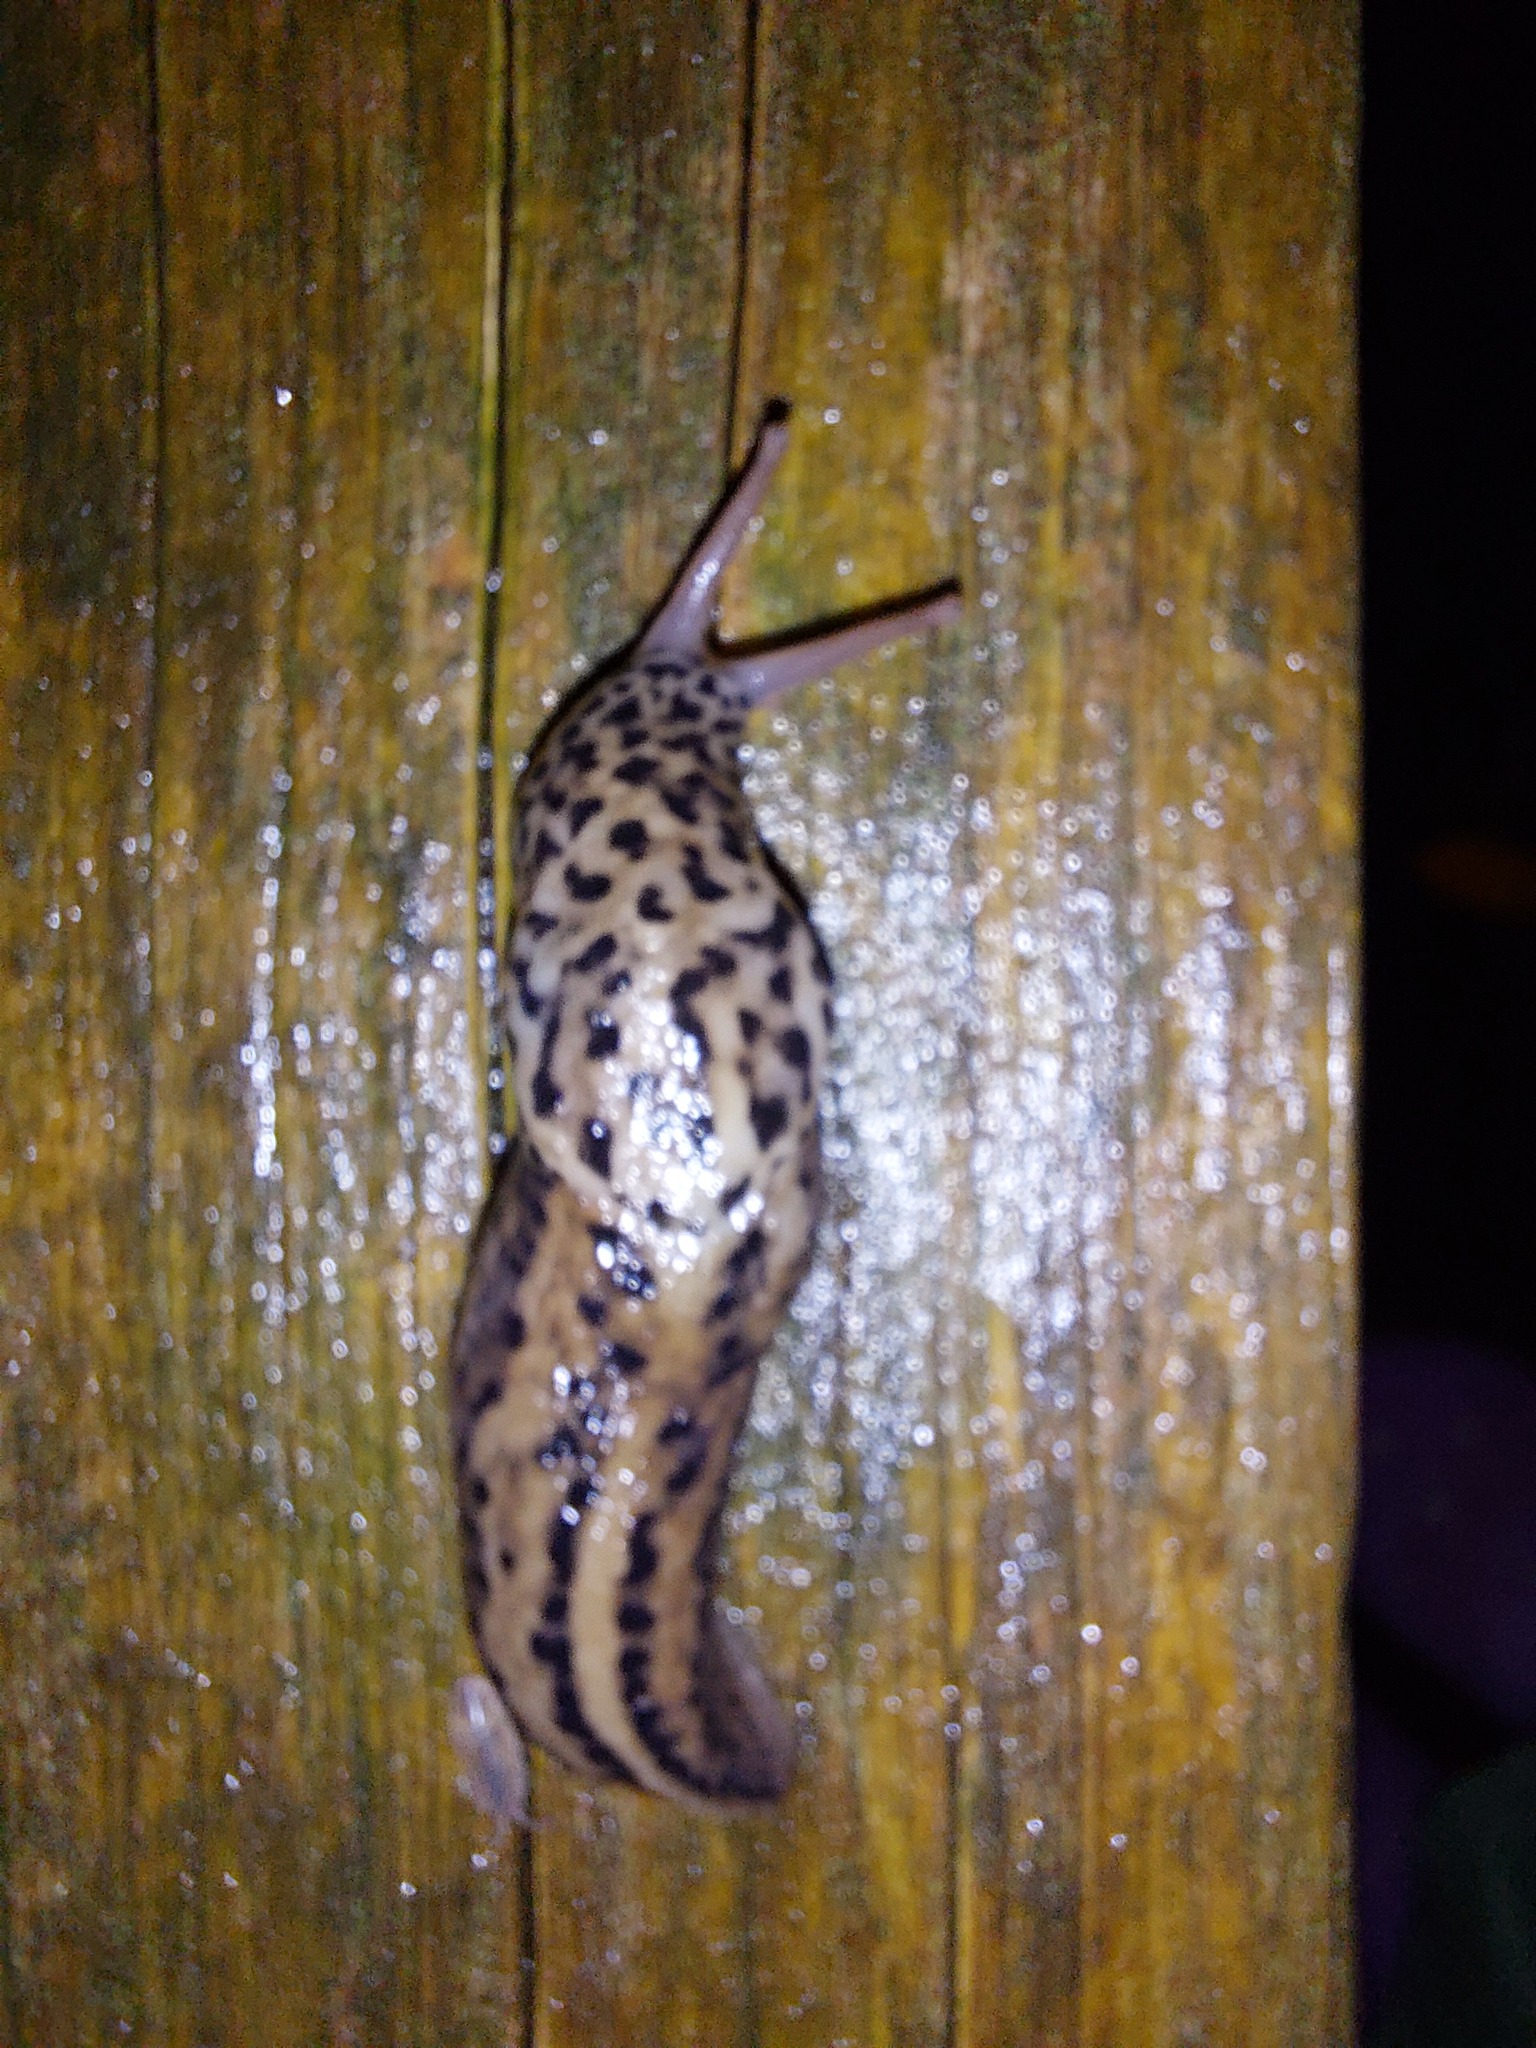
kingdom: Animalia
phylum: Mollusca
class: Gastropoda
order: Stylommatophora
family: Limacidae
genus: Limax
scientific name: Limax maximus
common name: Great grey slug
